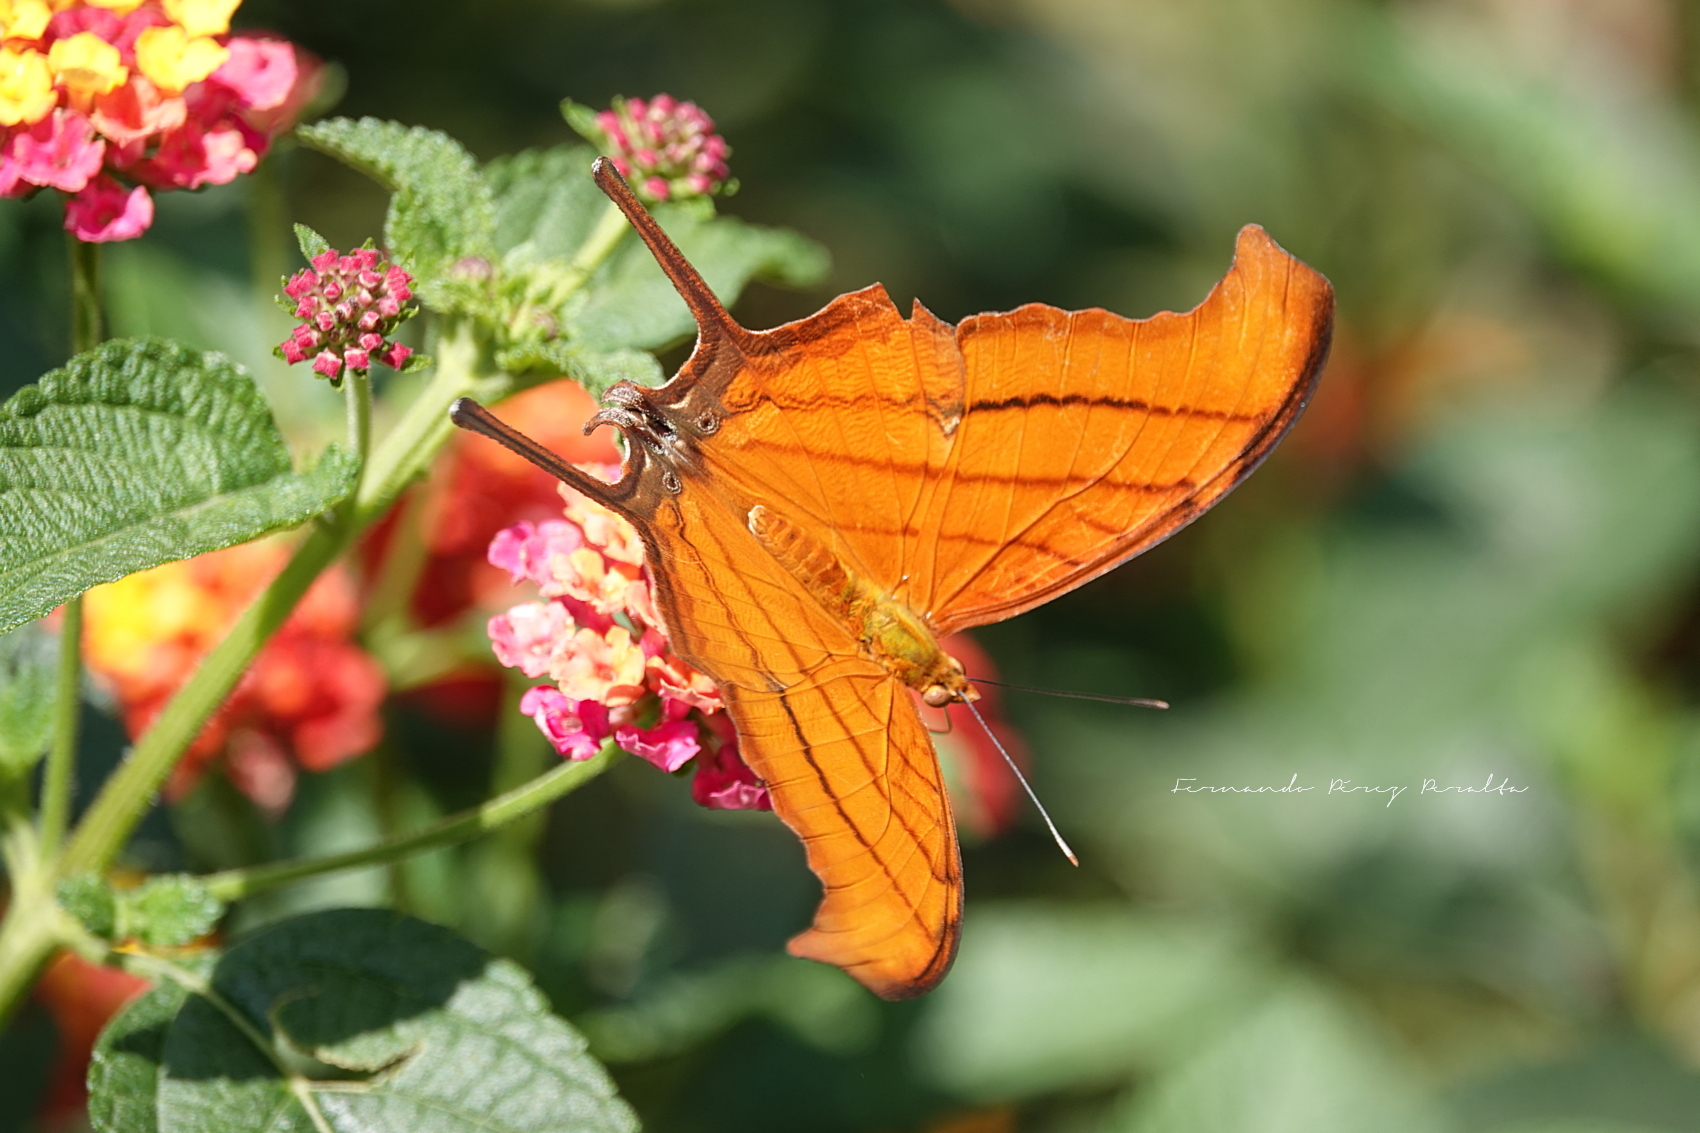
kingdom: Animalia
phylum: Arthropoda
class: Insecta
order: Lepidoptera
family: Nymphalidae
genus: Marpesia
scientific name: Marpesia petreus
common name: Red dagger wing
